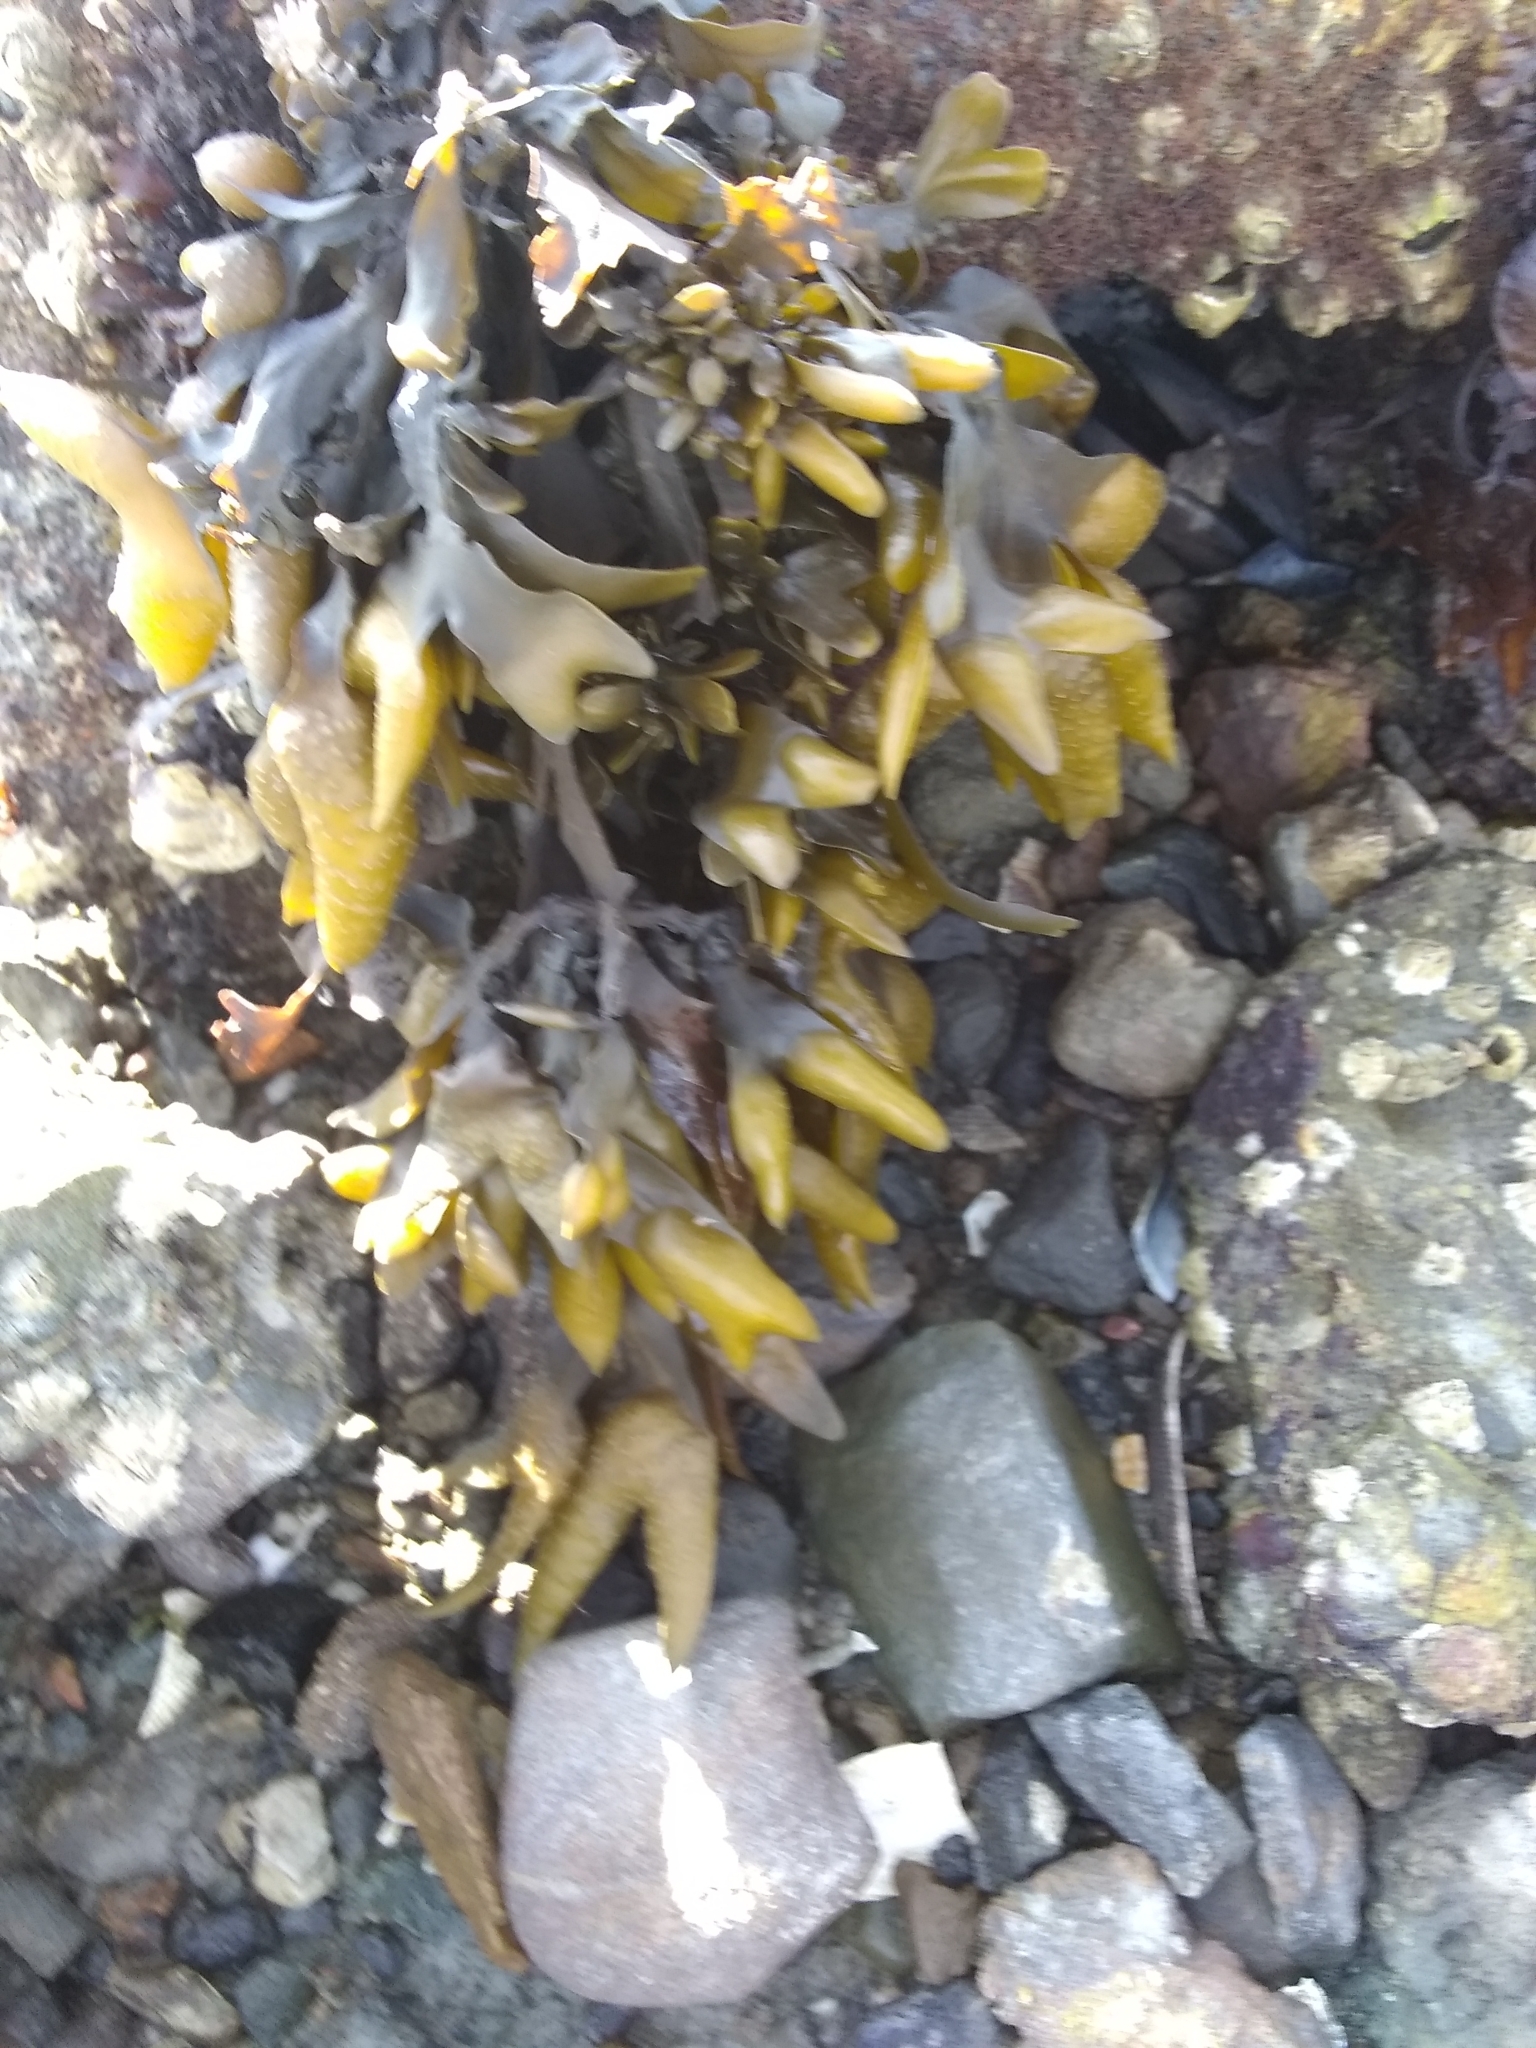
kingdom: Chromista
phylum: Ochrophyta
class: Phaeophyceae
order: Fucales
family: Fucaceae
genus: Fucus
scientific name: Fucus distichus
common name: Rockweed
